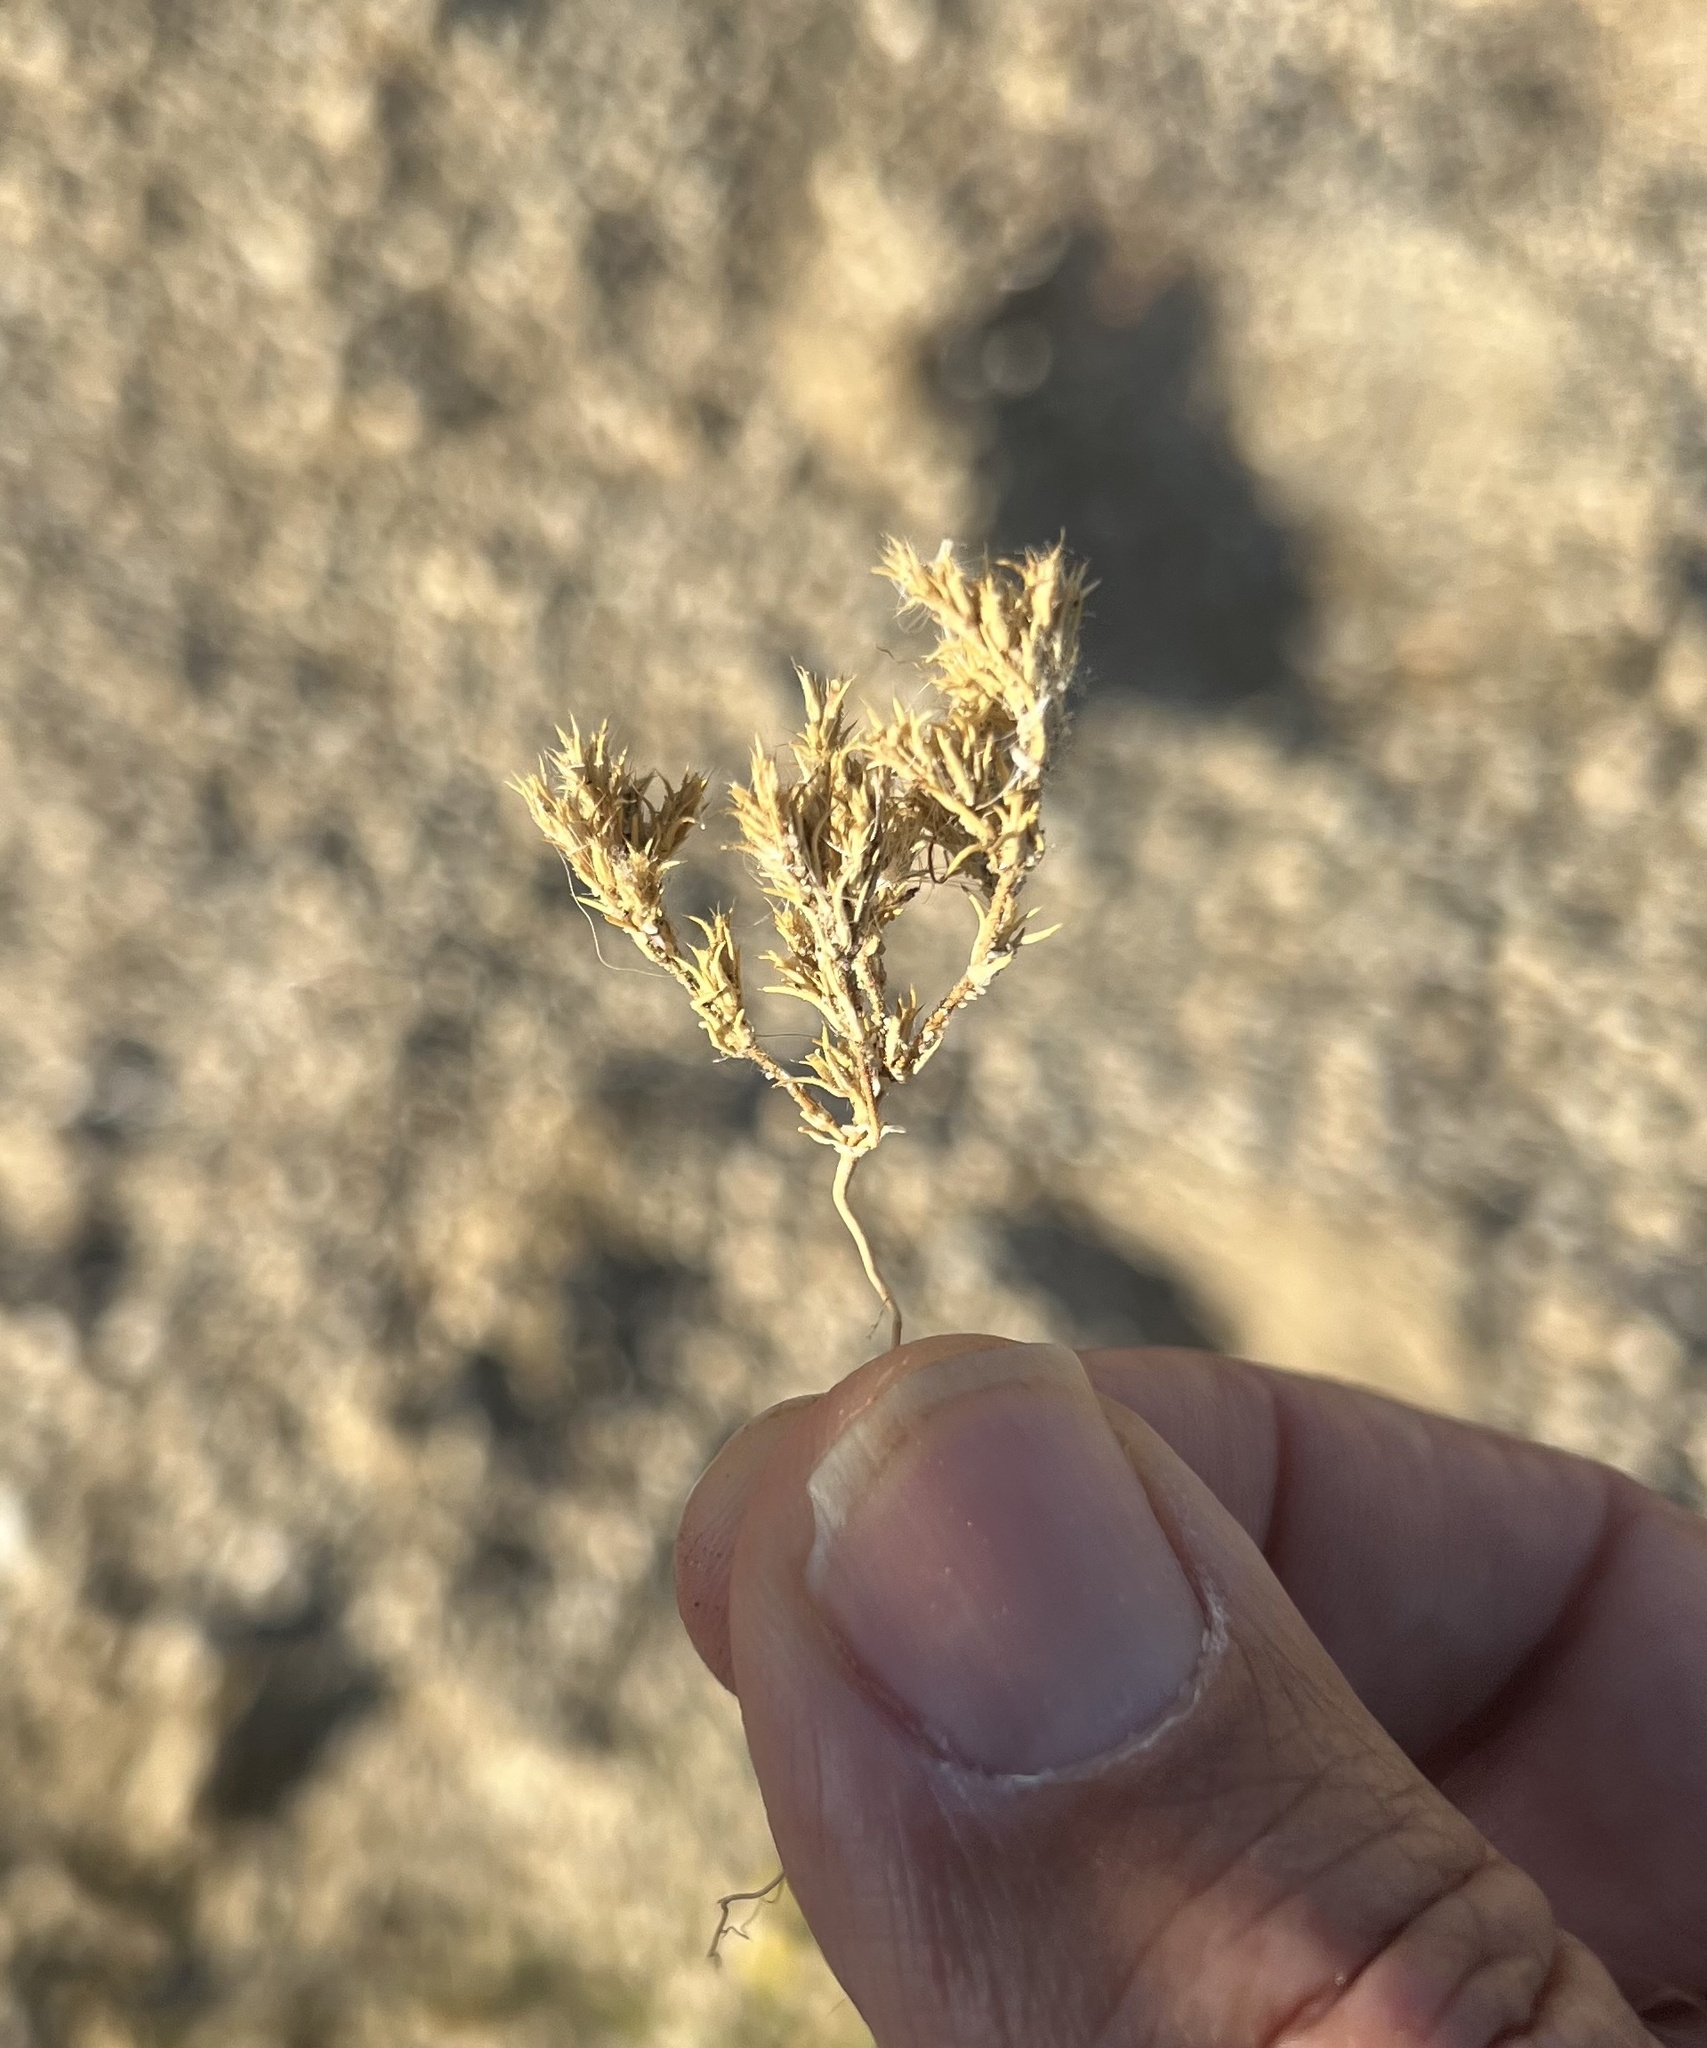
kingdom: Plantae
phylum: Tracheophyta
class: Magnoliopsida
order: Caryophyllales
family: Caryophyllaceae
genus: Loeflingia
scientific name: Loeflingia squarrosa
